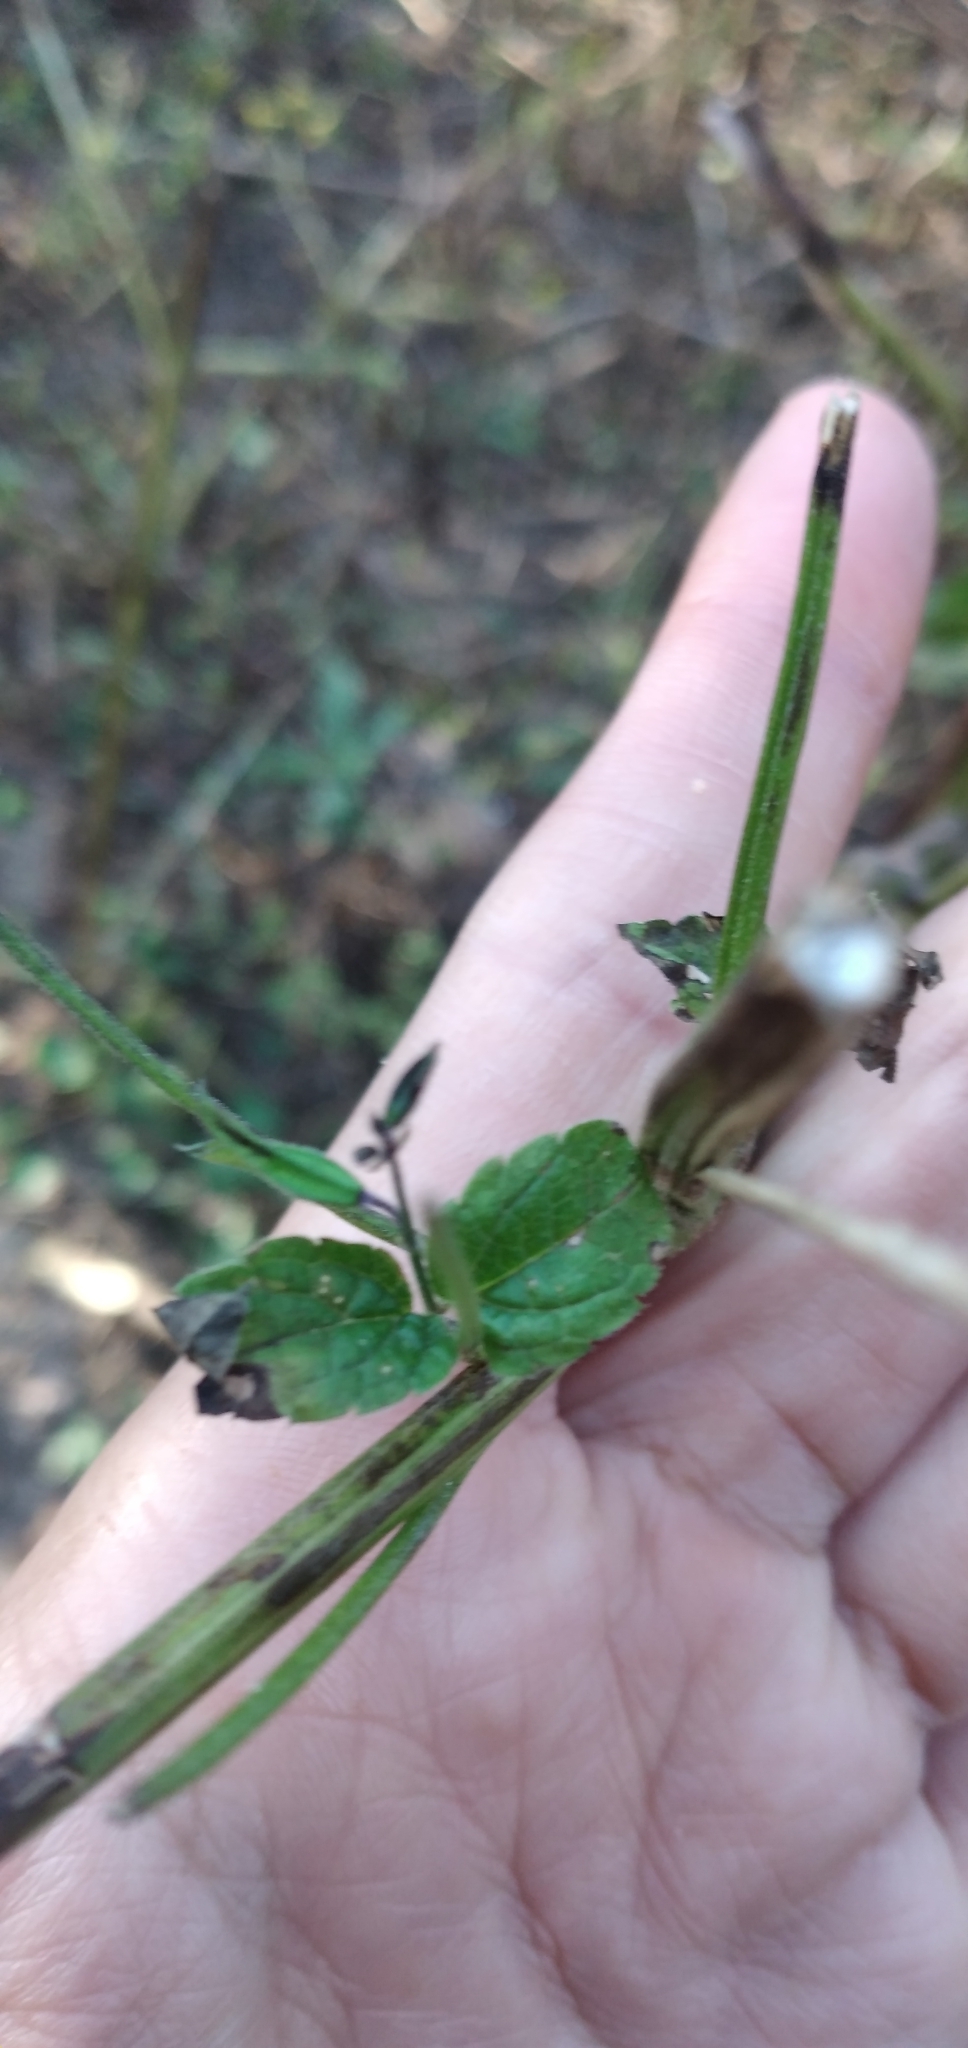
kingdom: Plantae
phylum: Tracheophyta
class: Magnoliopsida
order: Lamiales
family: Lamiaceae
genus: Salvia
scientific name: Salvia personata
